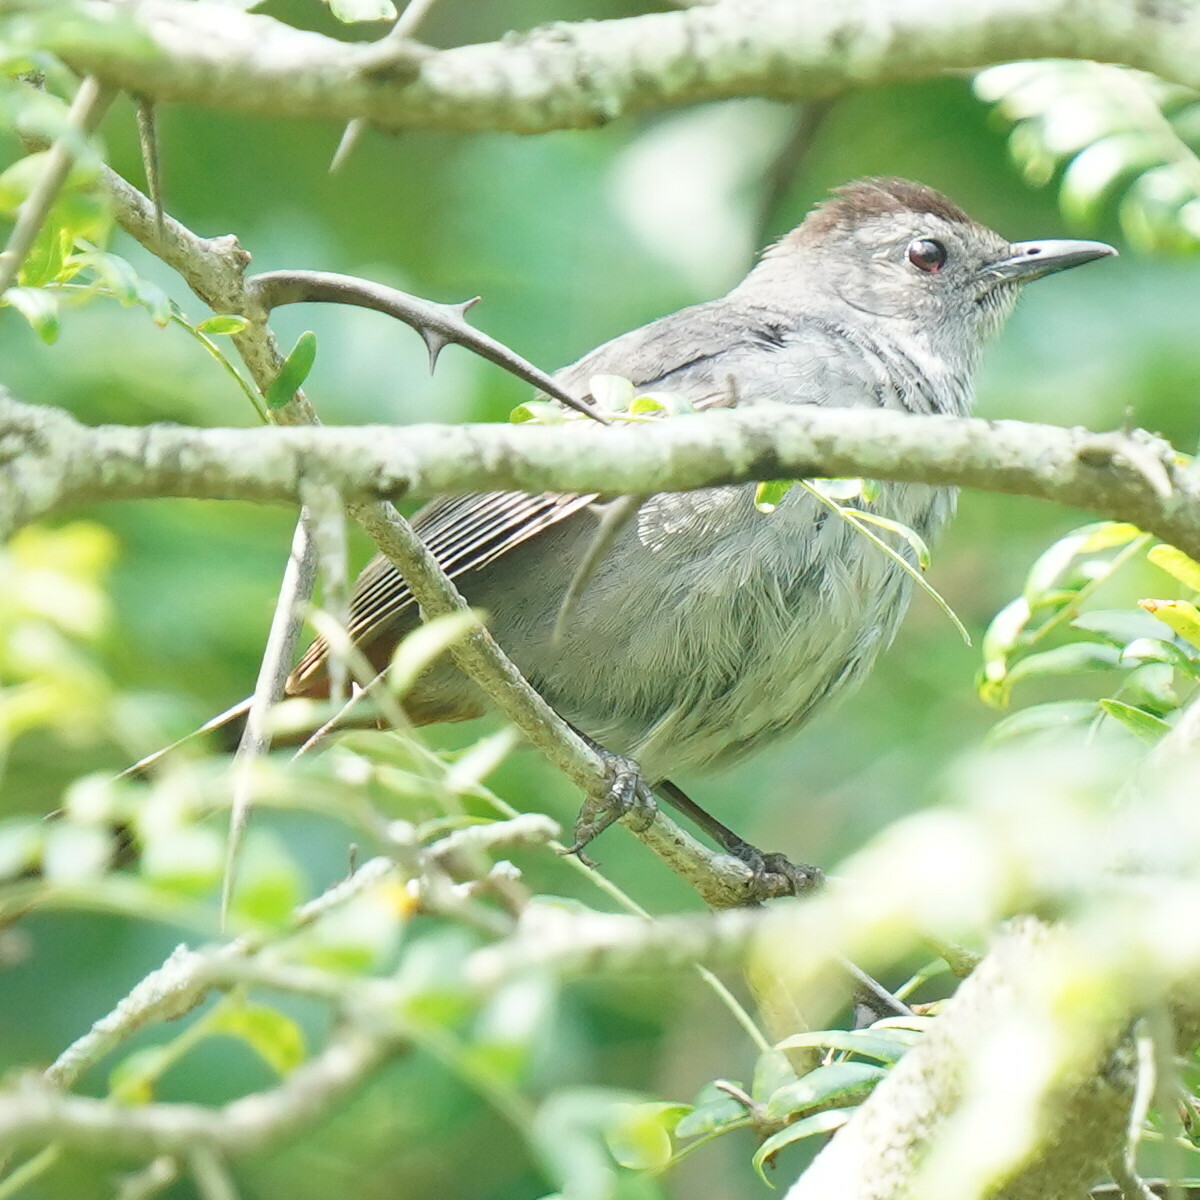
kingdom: Animalia
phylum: Chordata
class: Aves
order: Passeriformes
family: Mimidae
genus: Dumetella
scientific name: Dumetella carolinensis
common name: Gray catbird
